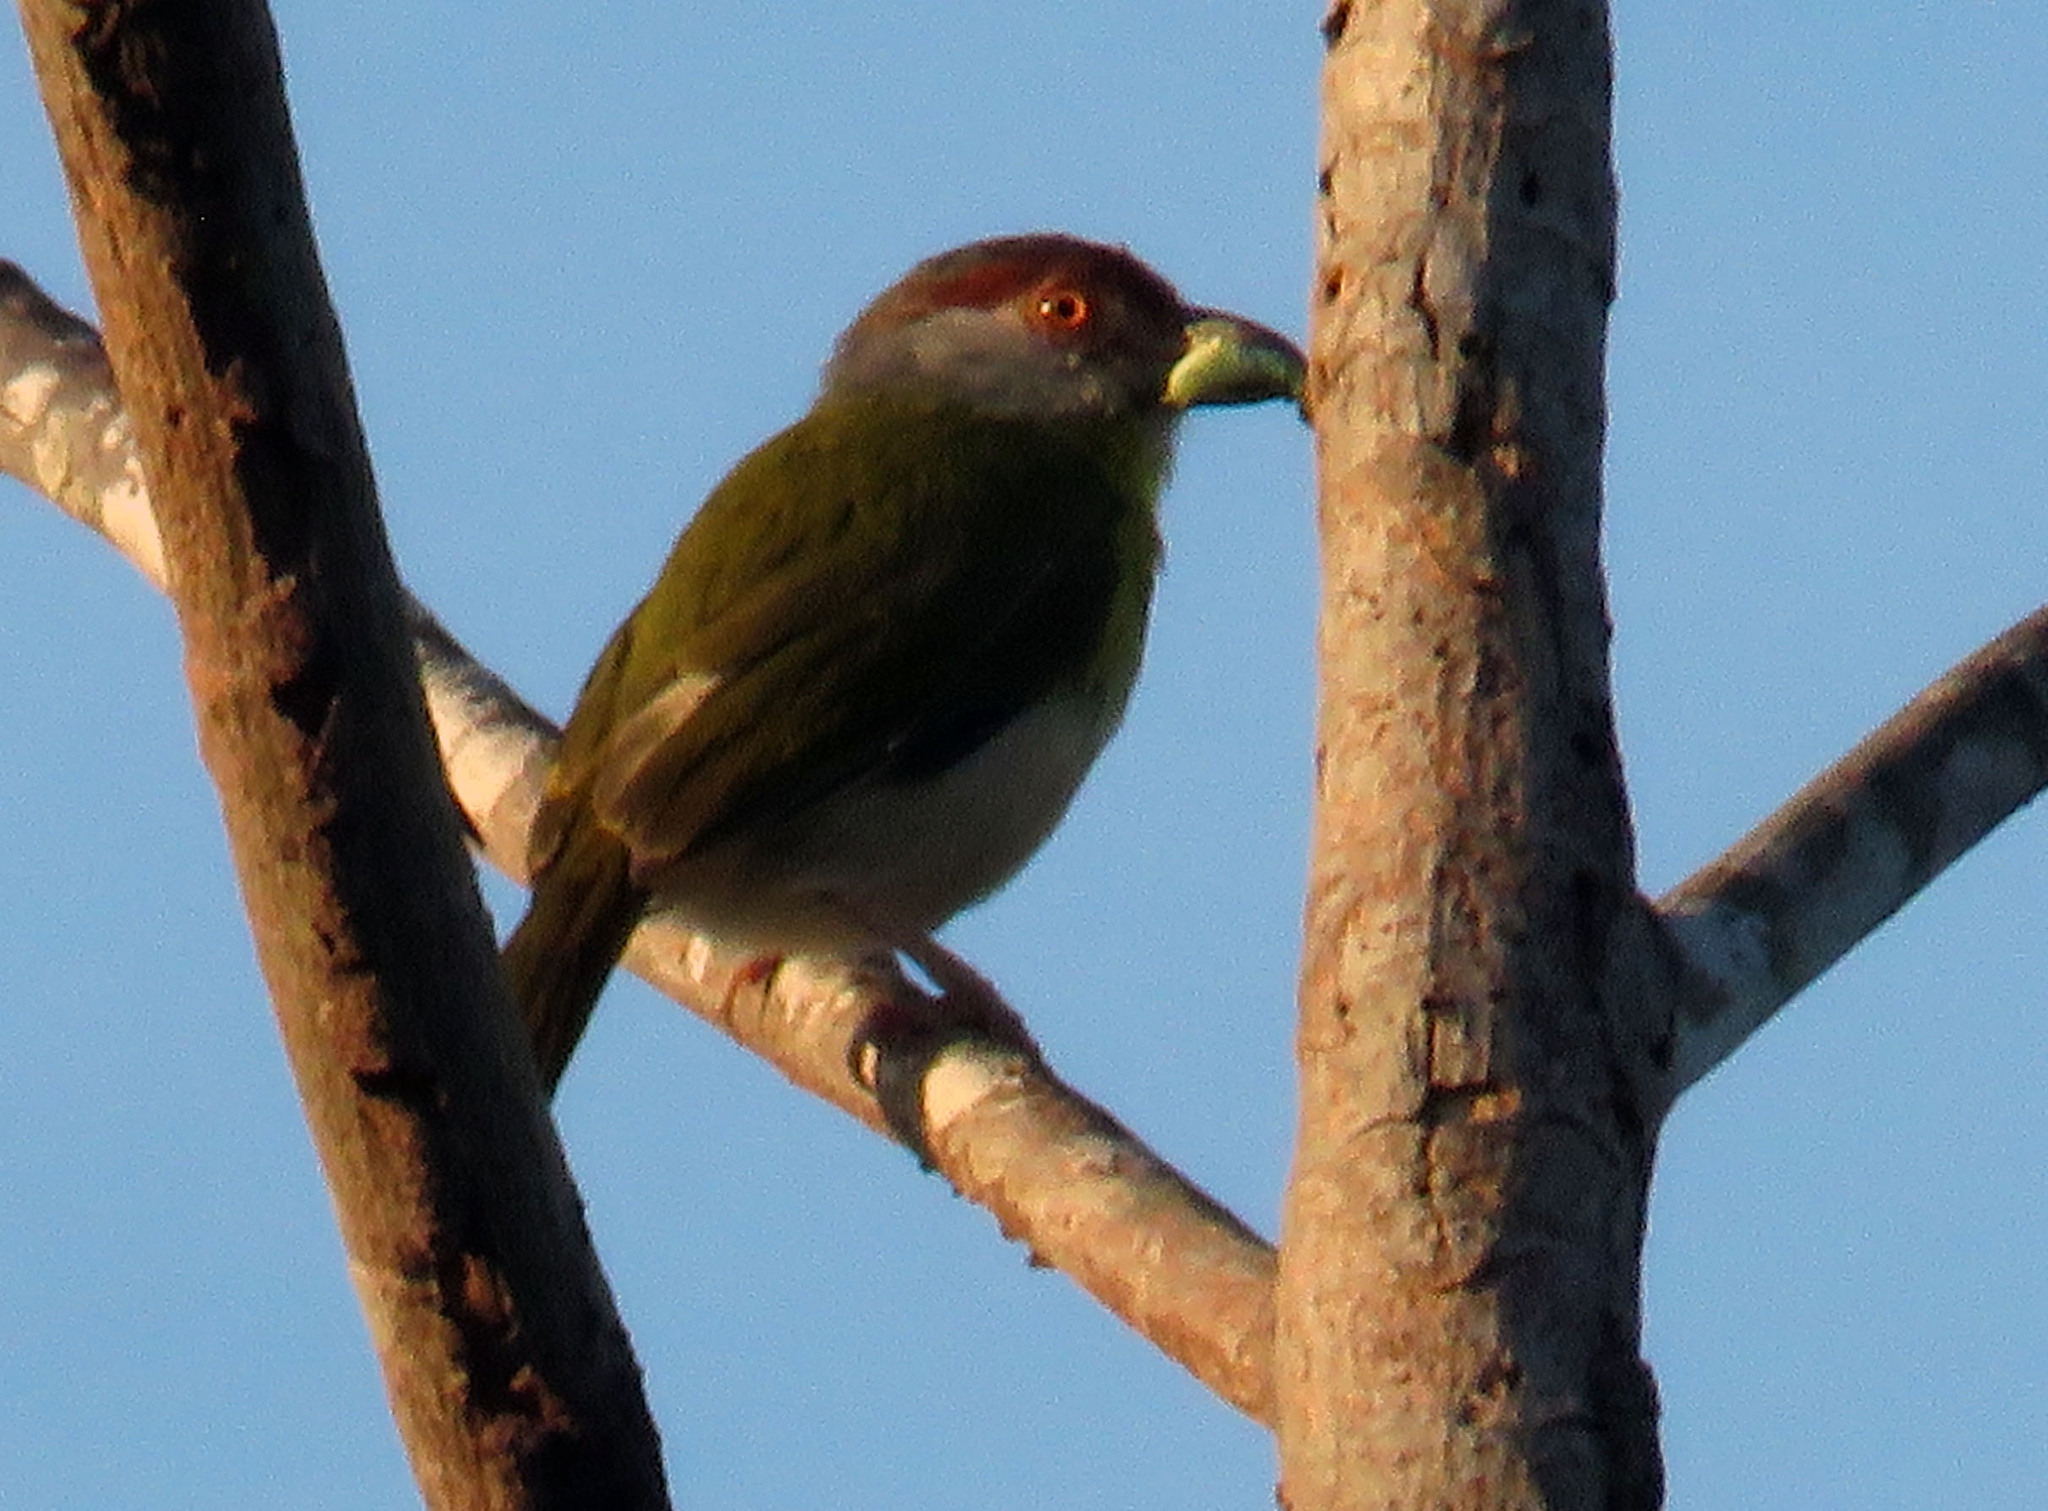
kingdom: Animalia
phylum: Chordata
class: Aves
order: Passeriformes
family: Vireonidae
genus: Cyclarhis
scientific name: Cyclarhis gujanensis
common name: Rufous-browed peppershrike
